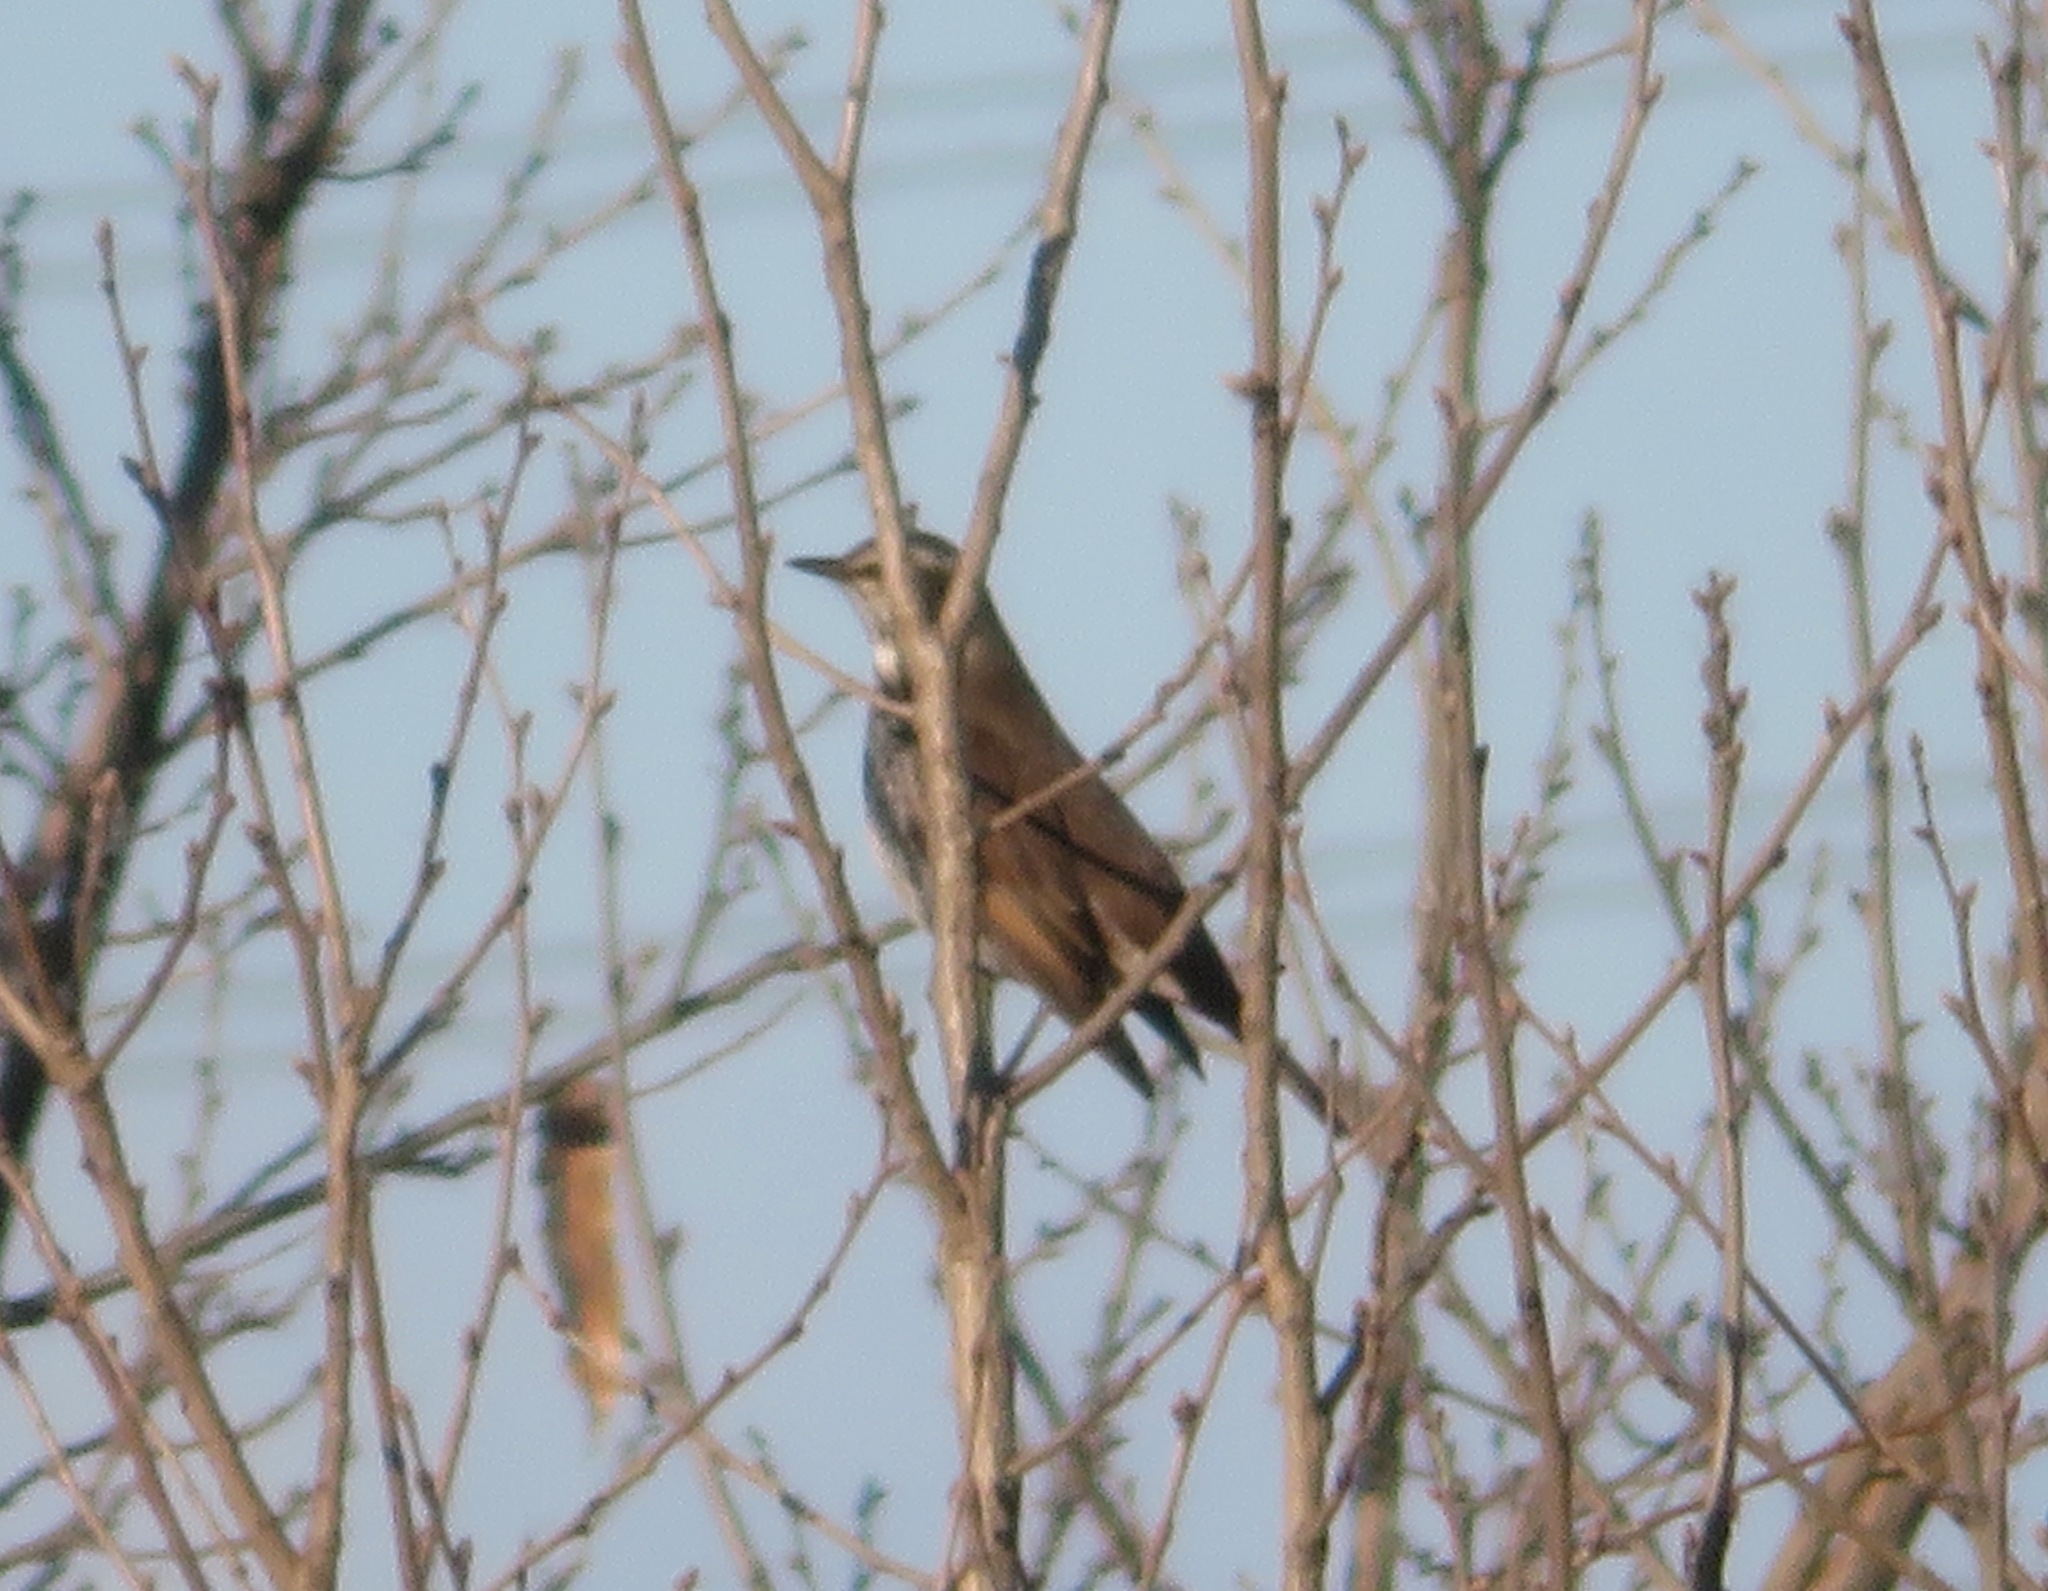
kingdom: Animalia
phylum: Chordata
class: Aves
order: Passeriformes
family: Turdidae
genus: Turdus
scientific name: Turdus eunomus
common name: Dusky thrush
